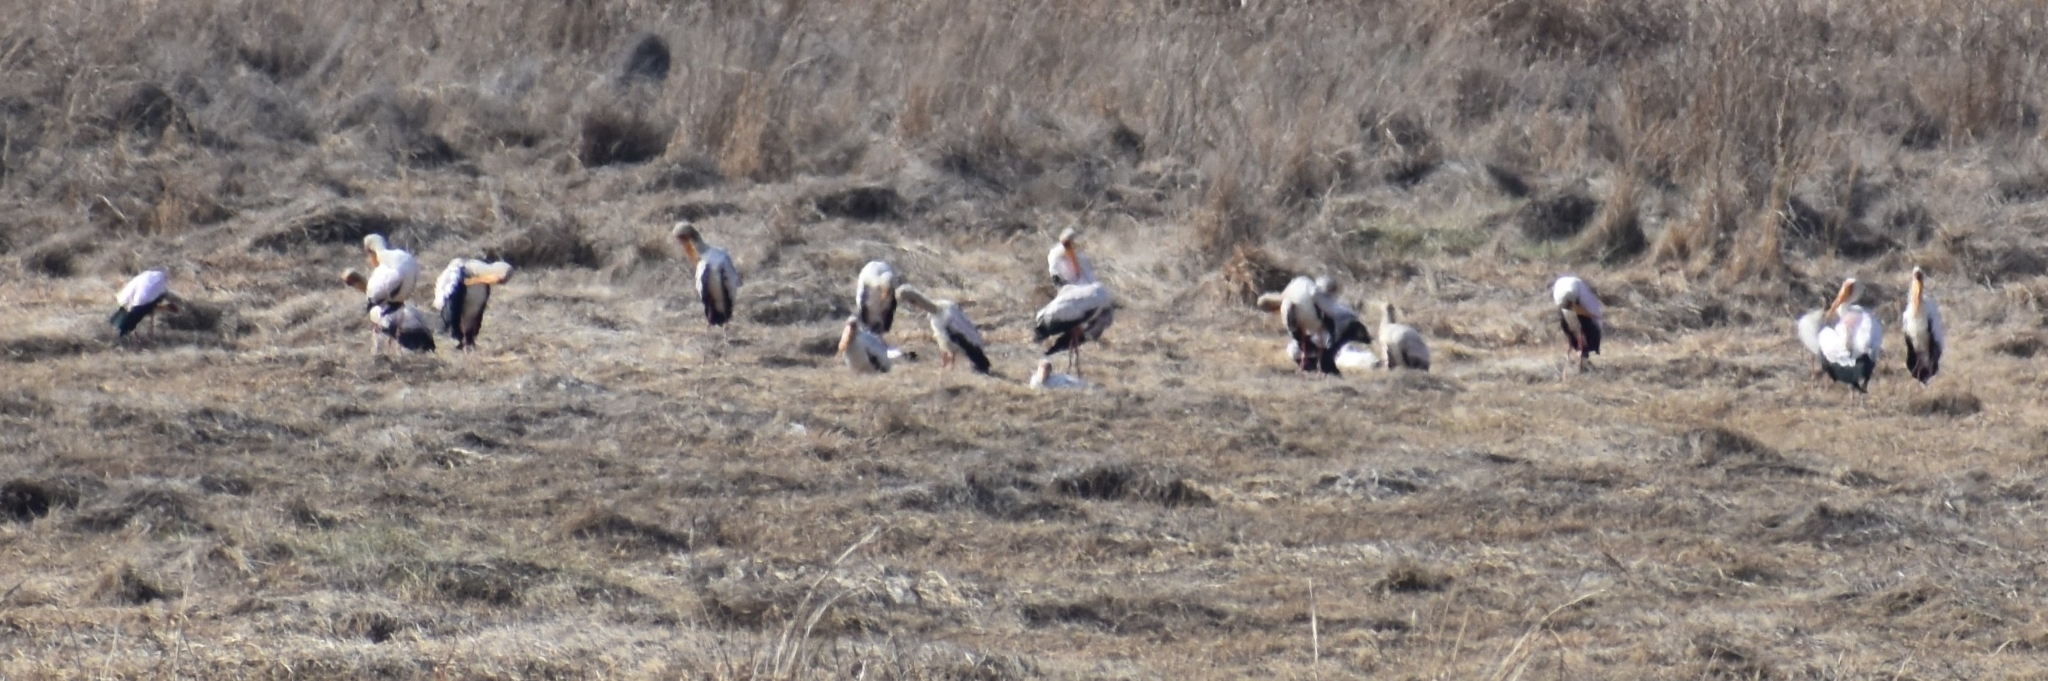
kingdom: Animalia
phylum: Chordata
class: Aves
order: Ciconiiformes
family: Ciconiidae
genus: Mycteria
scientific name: Mycteria ibis
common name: Yellow-billed stork
